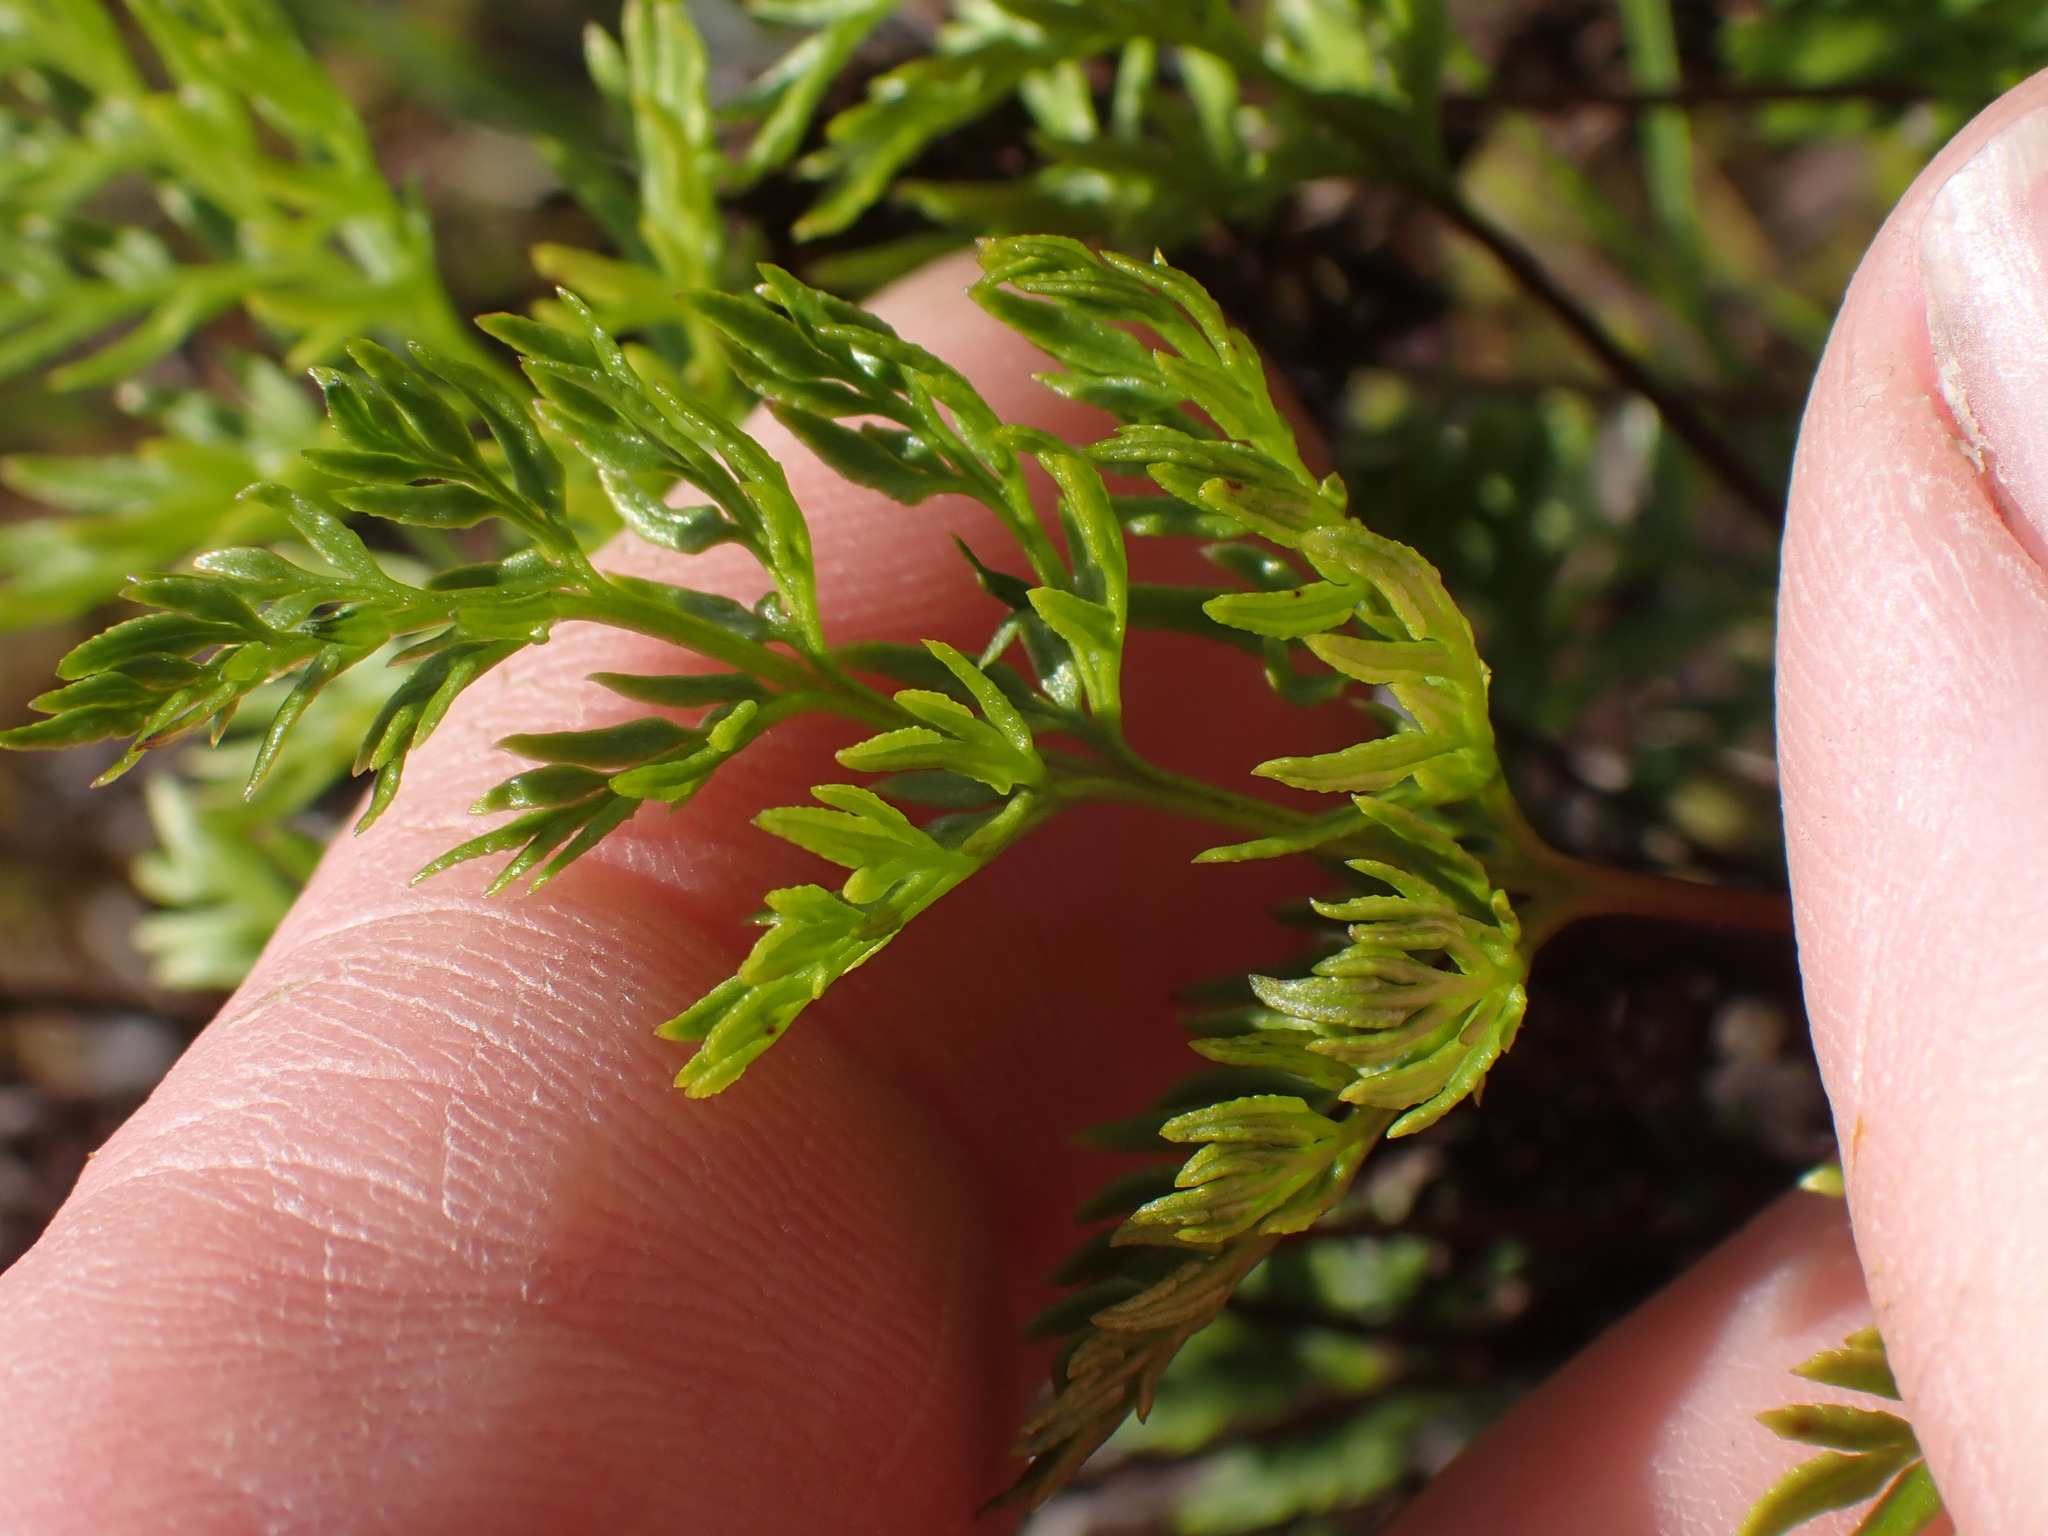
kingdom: Plantae
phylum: Tracheophyta
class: Polypodiopsida
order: Polypodiales
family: Pteridaceae
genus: Aspidotis
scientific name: Aspidotis densa
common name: Indian's dream
